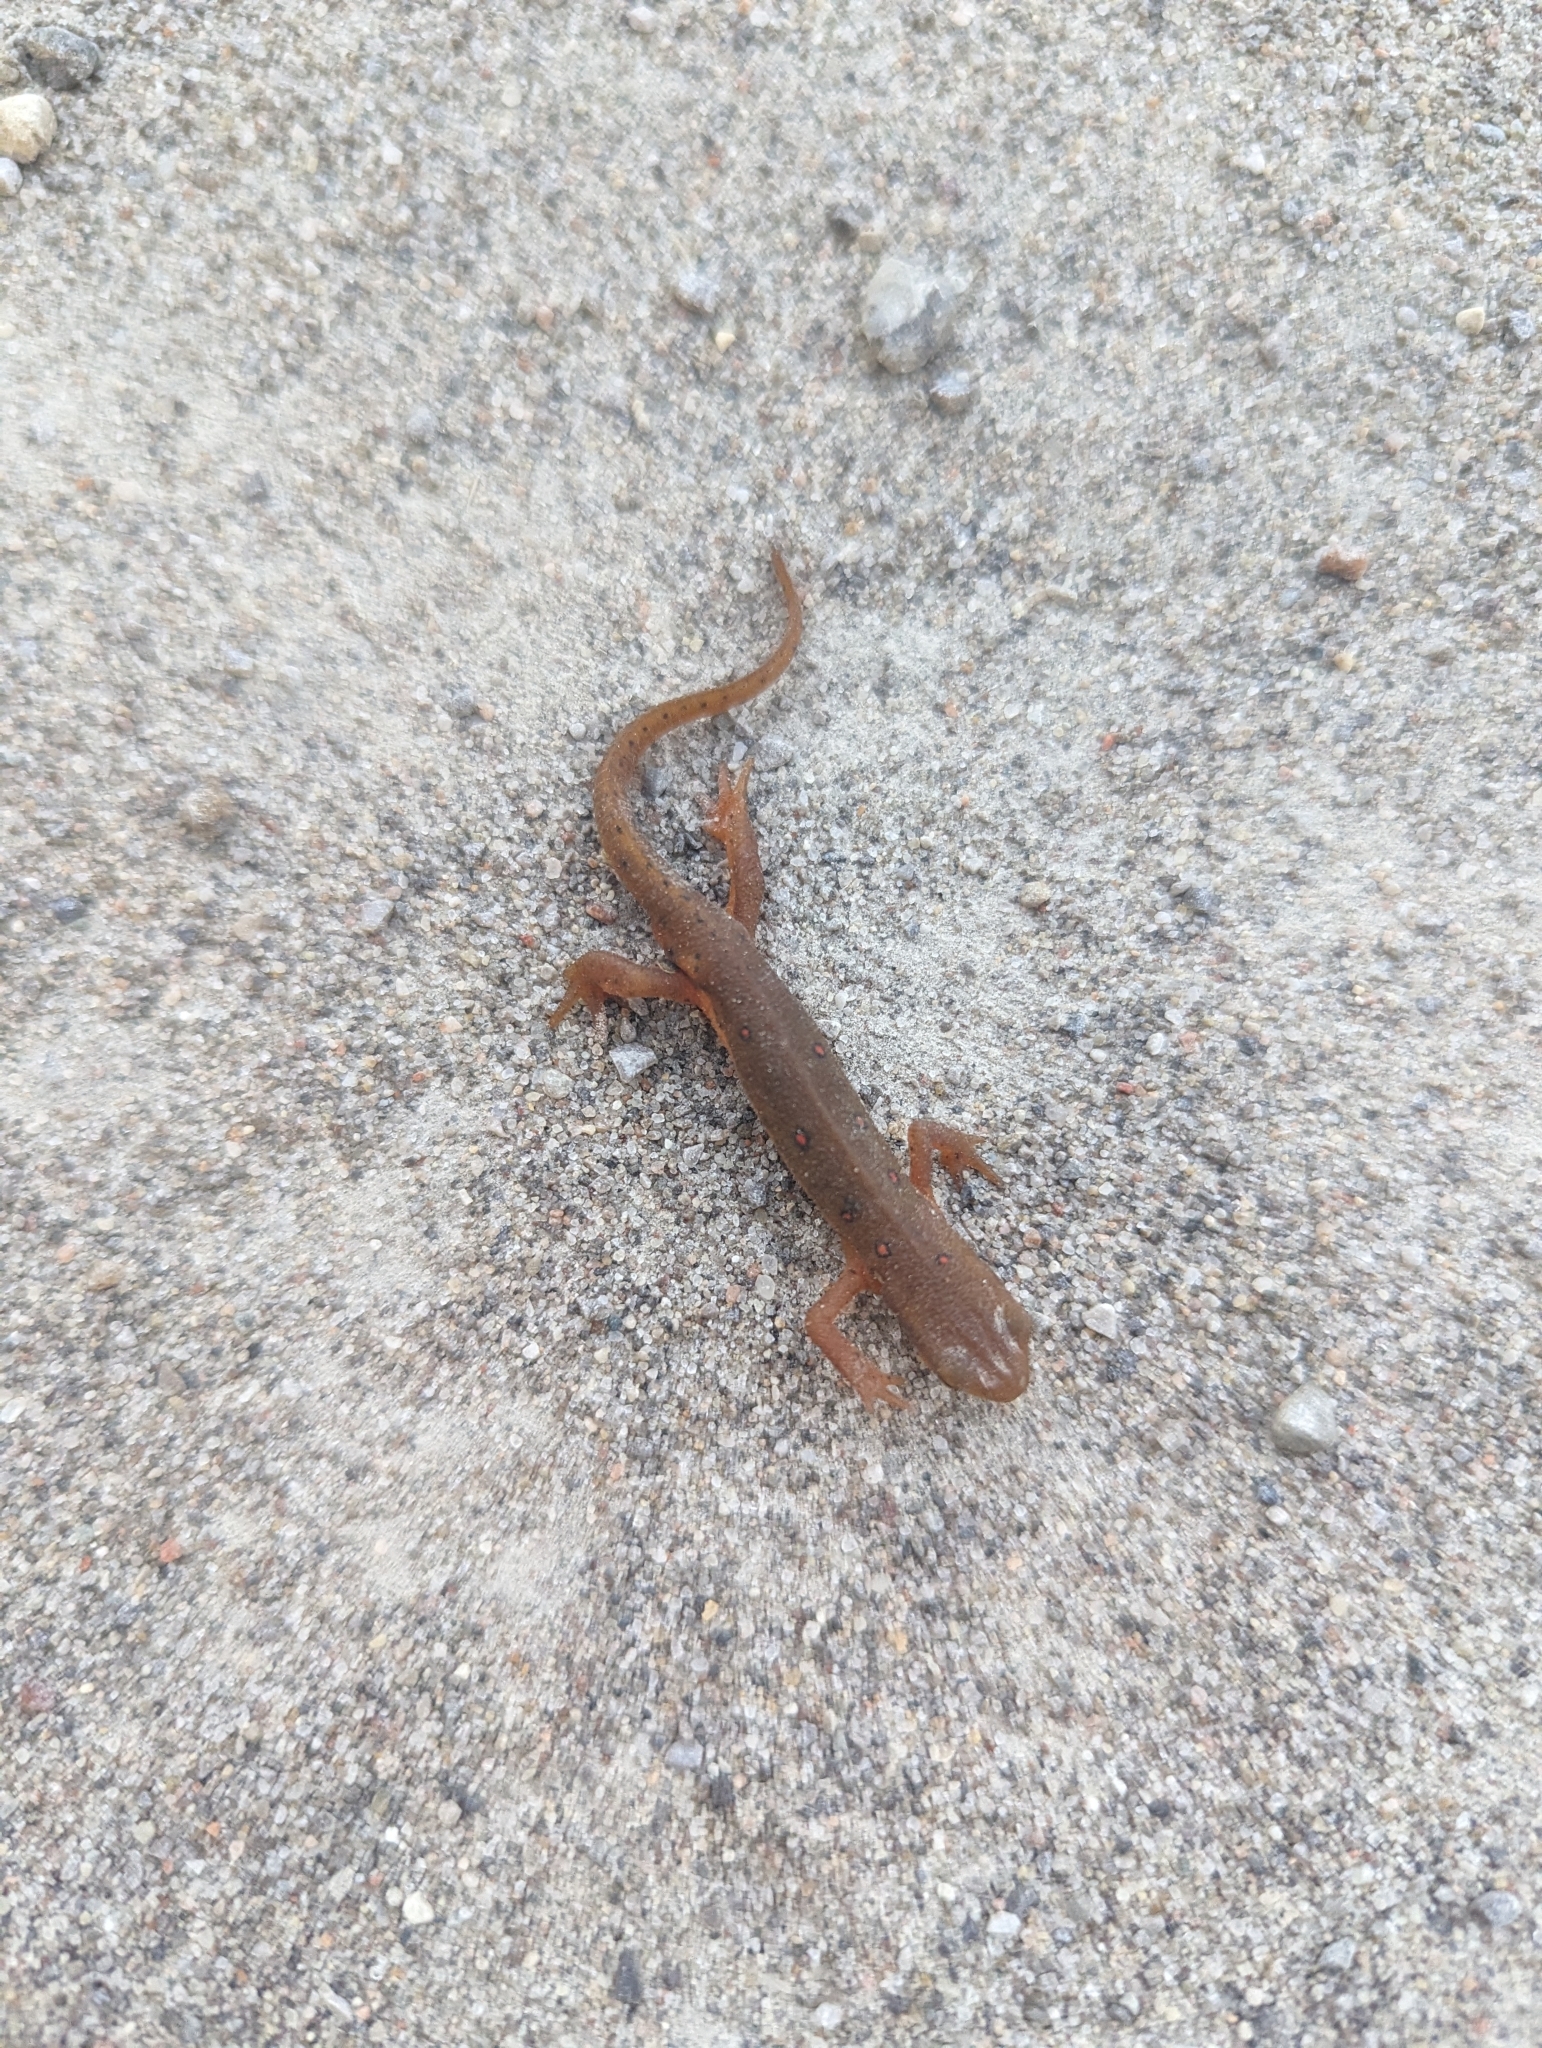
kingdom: Animalia
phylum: Chordata
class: Amphibia
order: Caudata
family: Salamandridae
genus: Notophthalmus
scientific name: Notophthalmus viridescens
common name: Eastern newt
